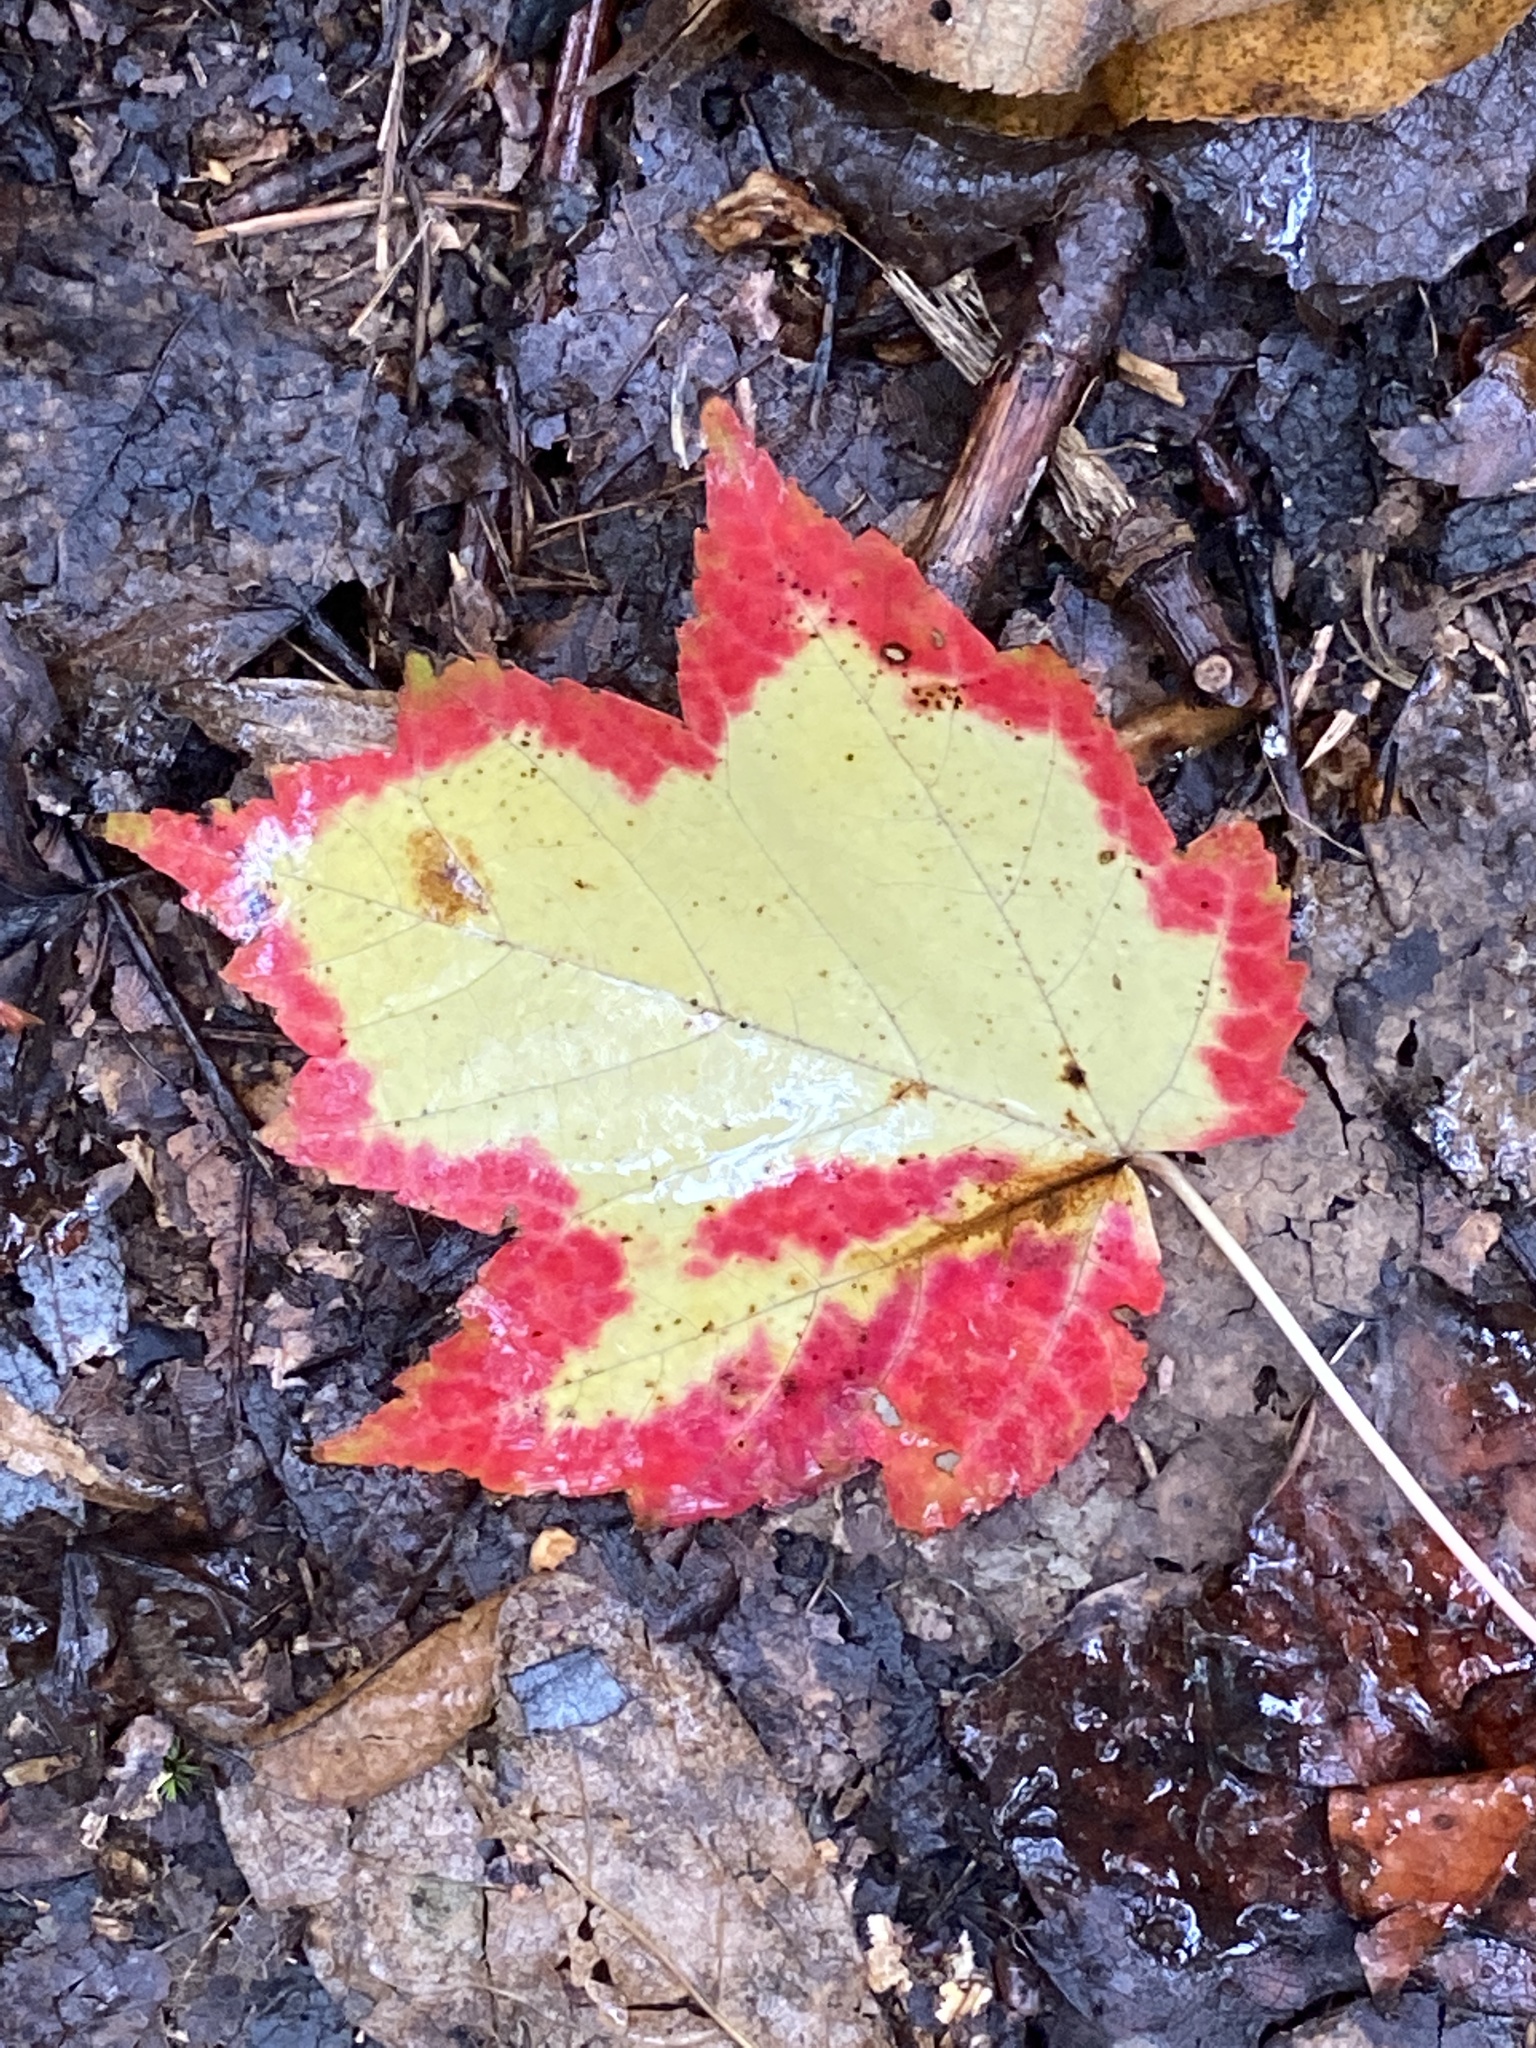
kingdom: Plantae
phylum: Tracheophyta
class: Magnoliopsida
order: Sapindales
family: Sapindaceae
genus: Acer
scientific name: Acer rubrum
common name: Red maple
